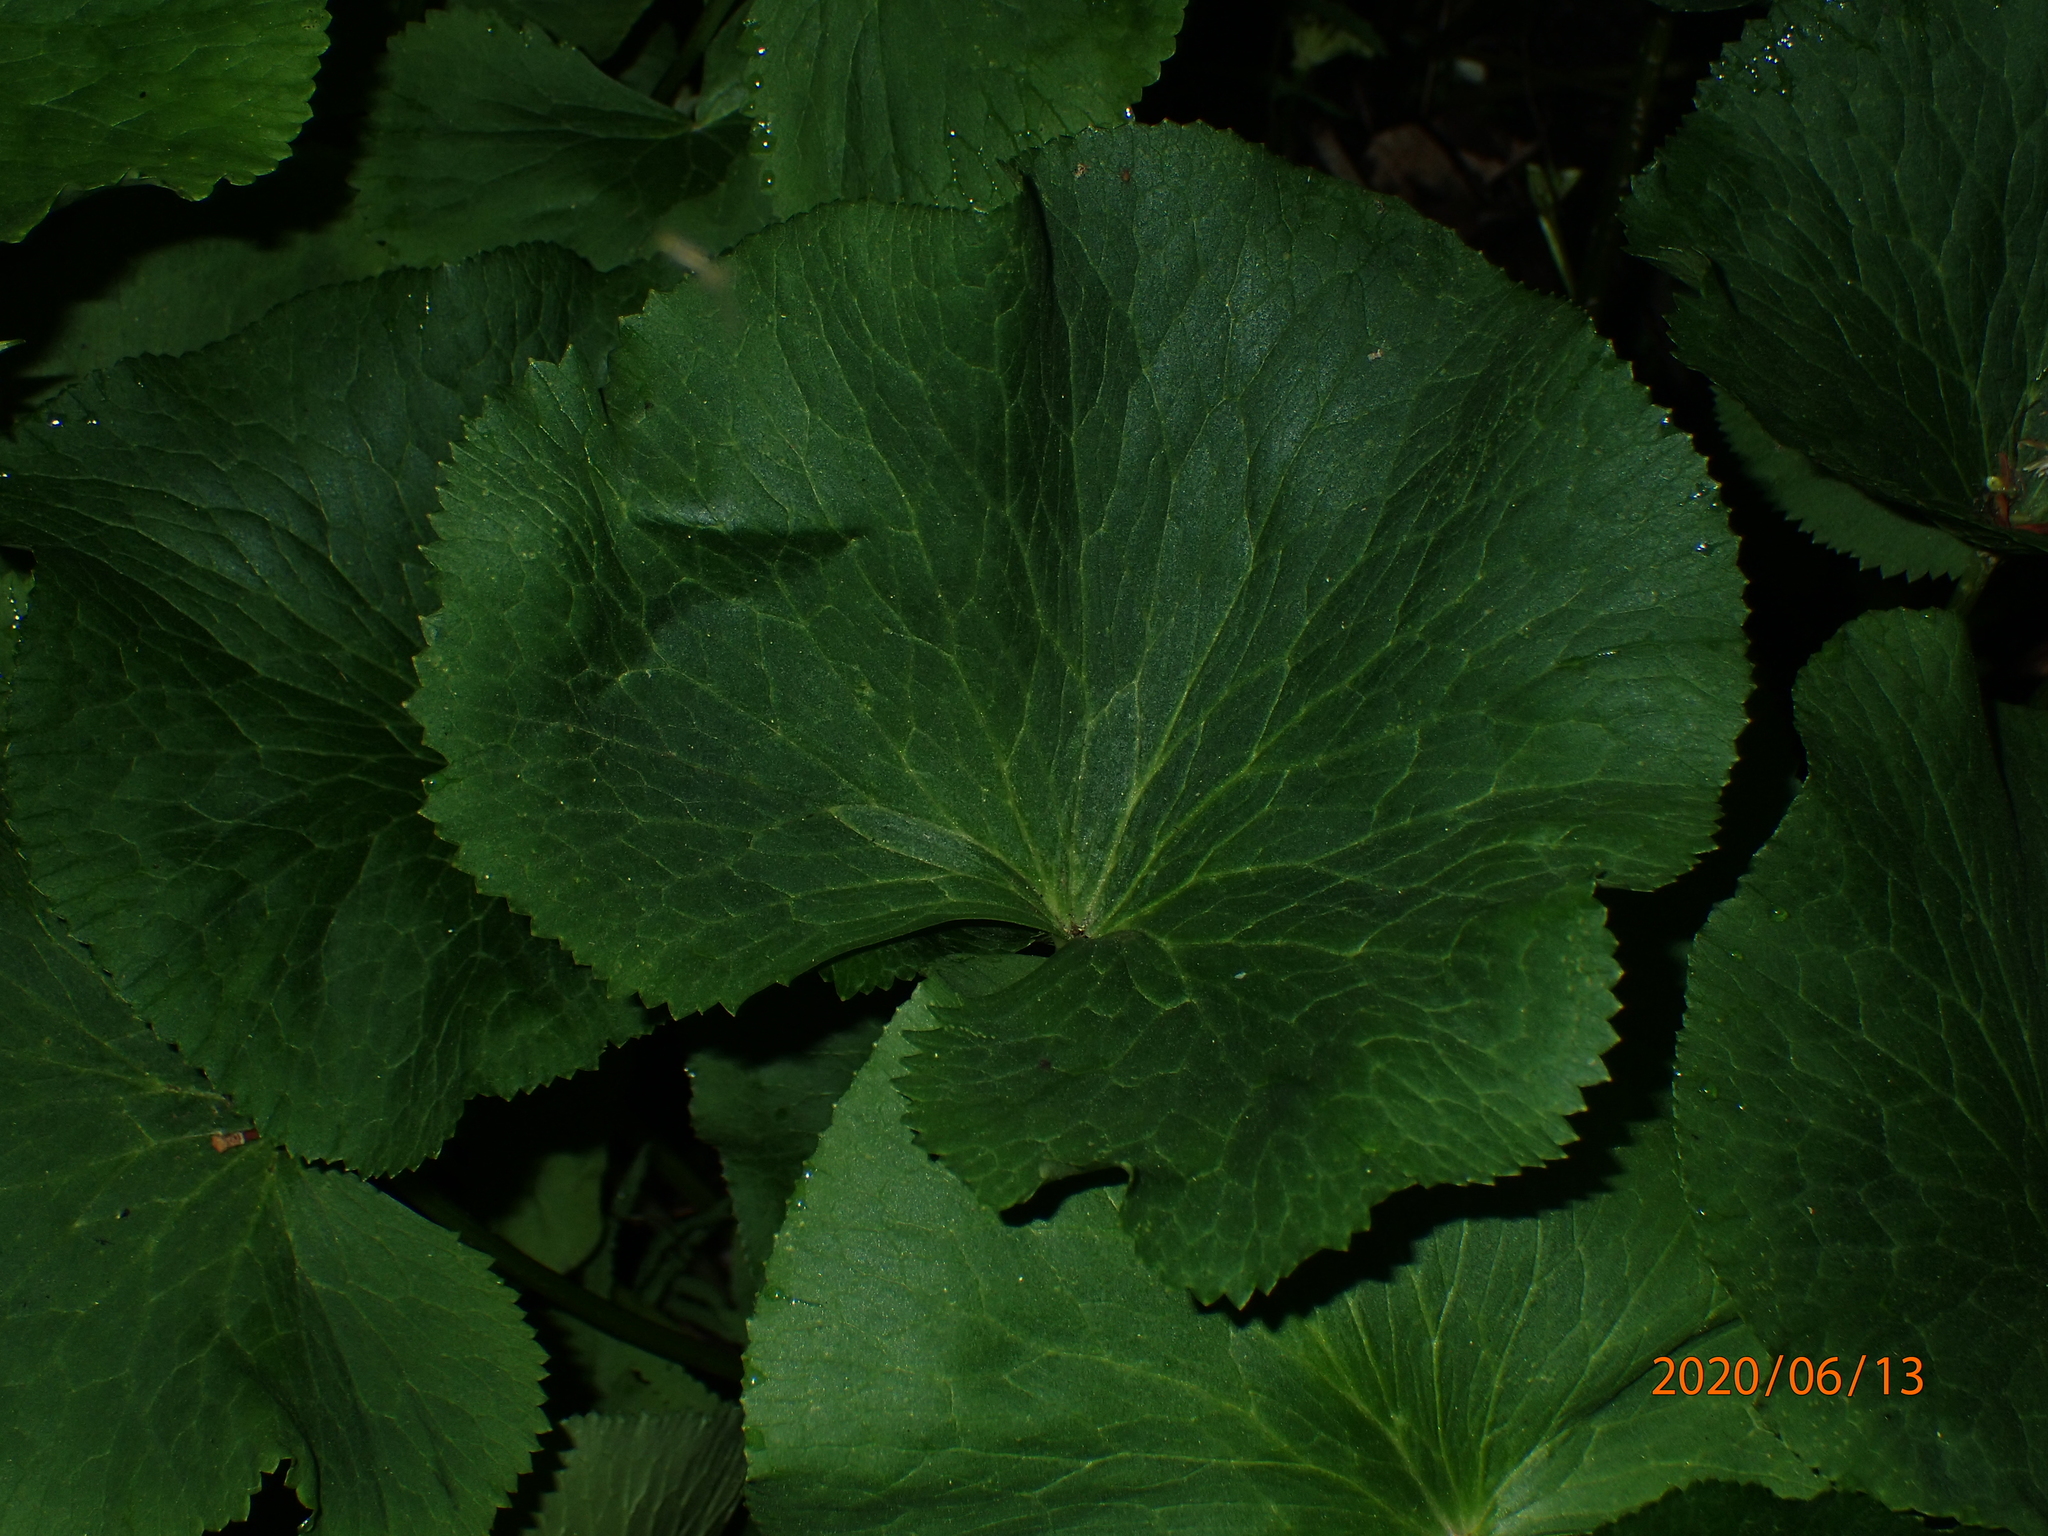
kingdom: Plantae
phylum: Tracheophyta
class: Magnoliopsida
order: Ranunculales
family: Ranunculaceae
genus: Caltha
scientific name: Caltha palustris
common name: Marsh marigold
